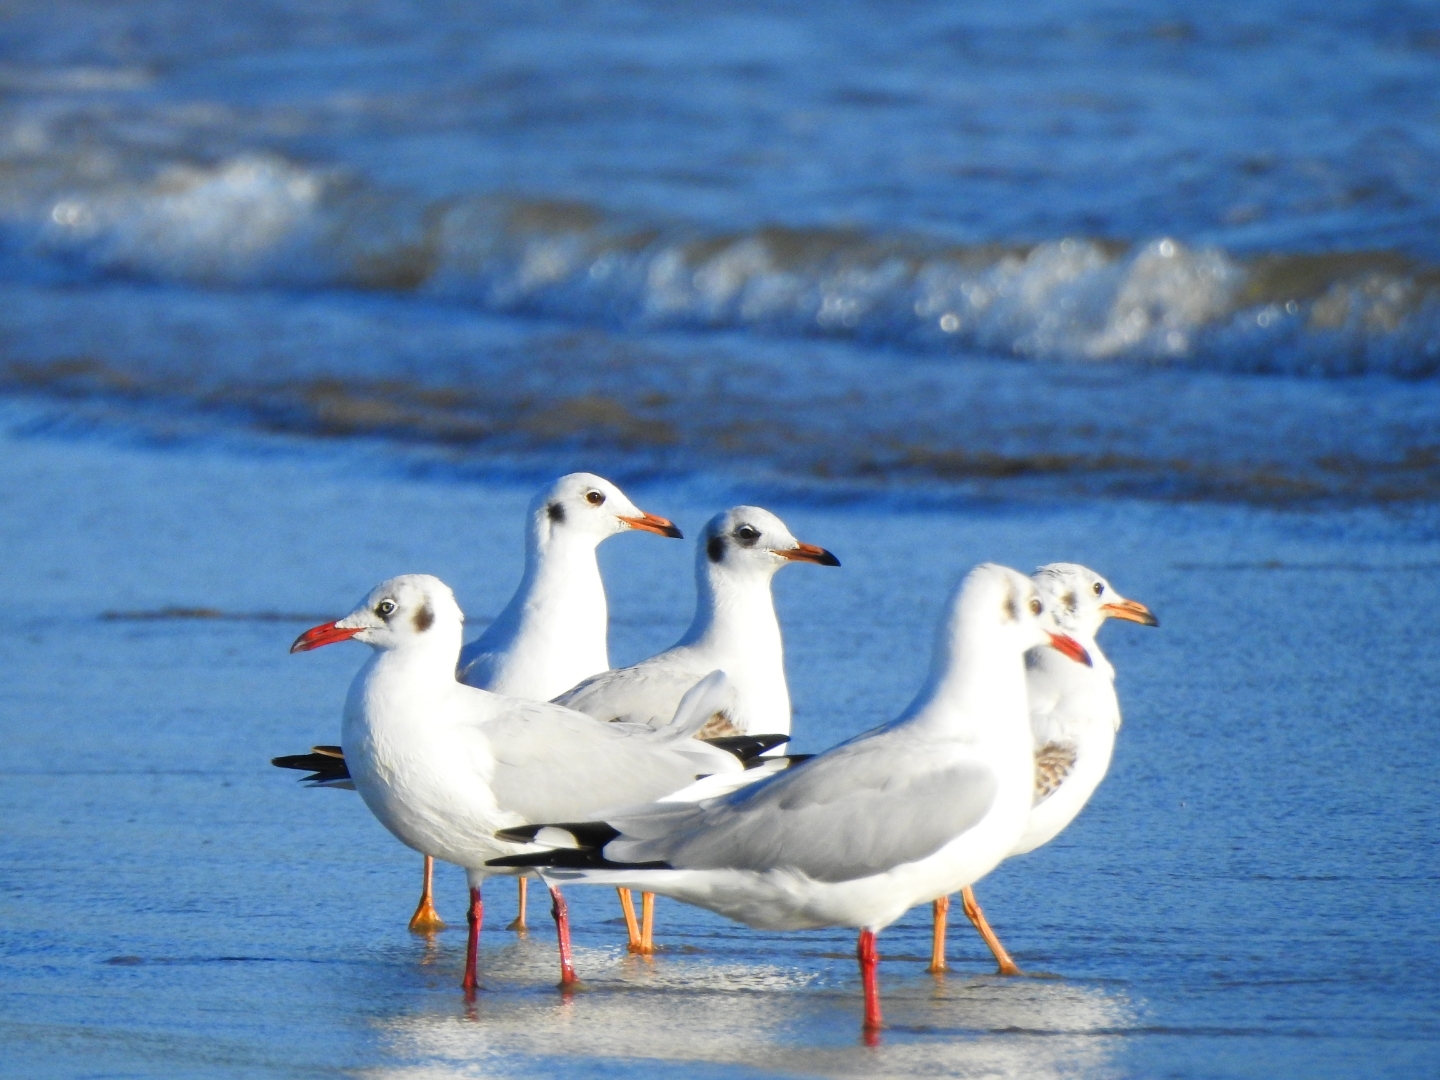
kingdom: Animalia
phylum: Chordata
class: Aves
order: Charadriiformes
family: Laridae
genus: Chroicocephalus
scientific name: Chroicocephalus brunnicephalus
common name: Brown-headed gull
